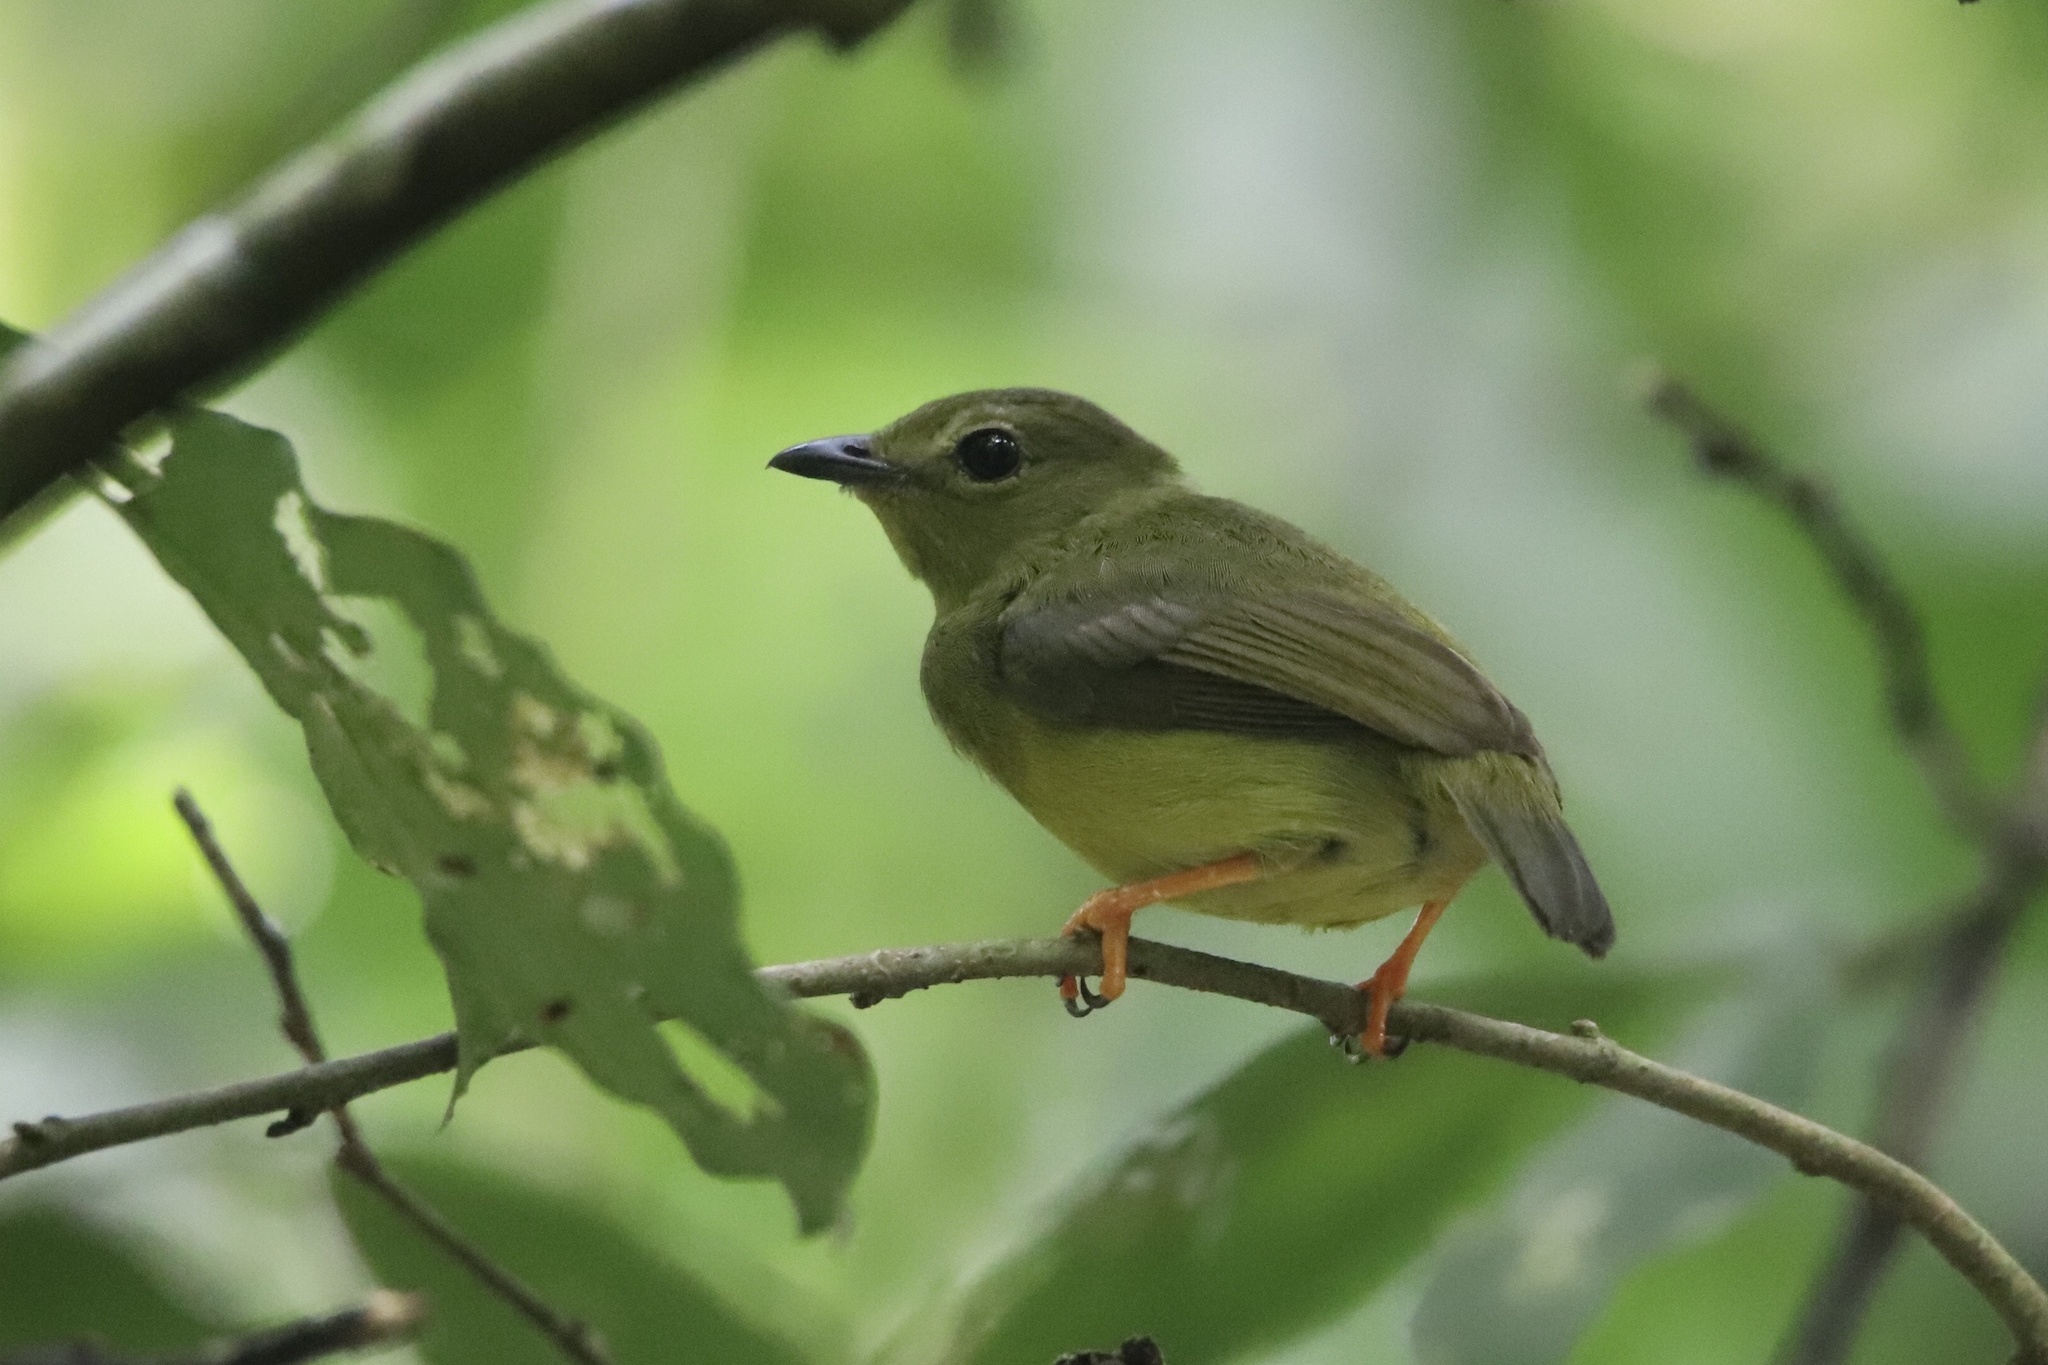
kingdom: Animalia
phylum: Chordata
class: Aves
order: Passeriformes
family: Pipridae
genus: Manacus
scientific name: Manacus vitellinus
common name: Golden-collared manakin
